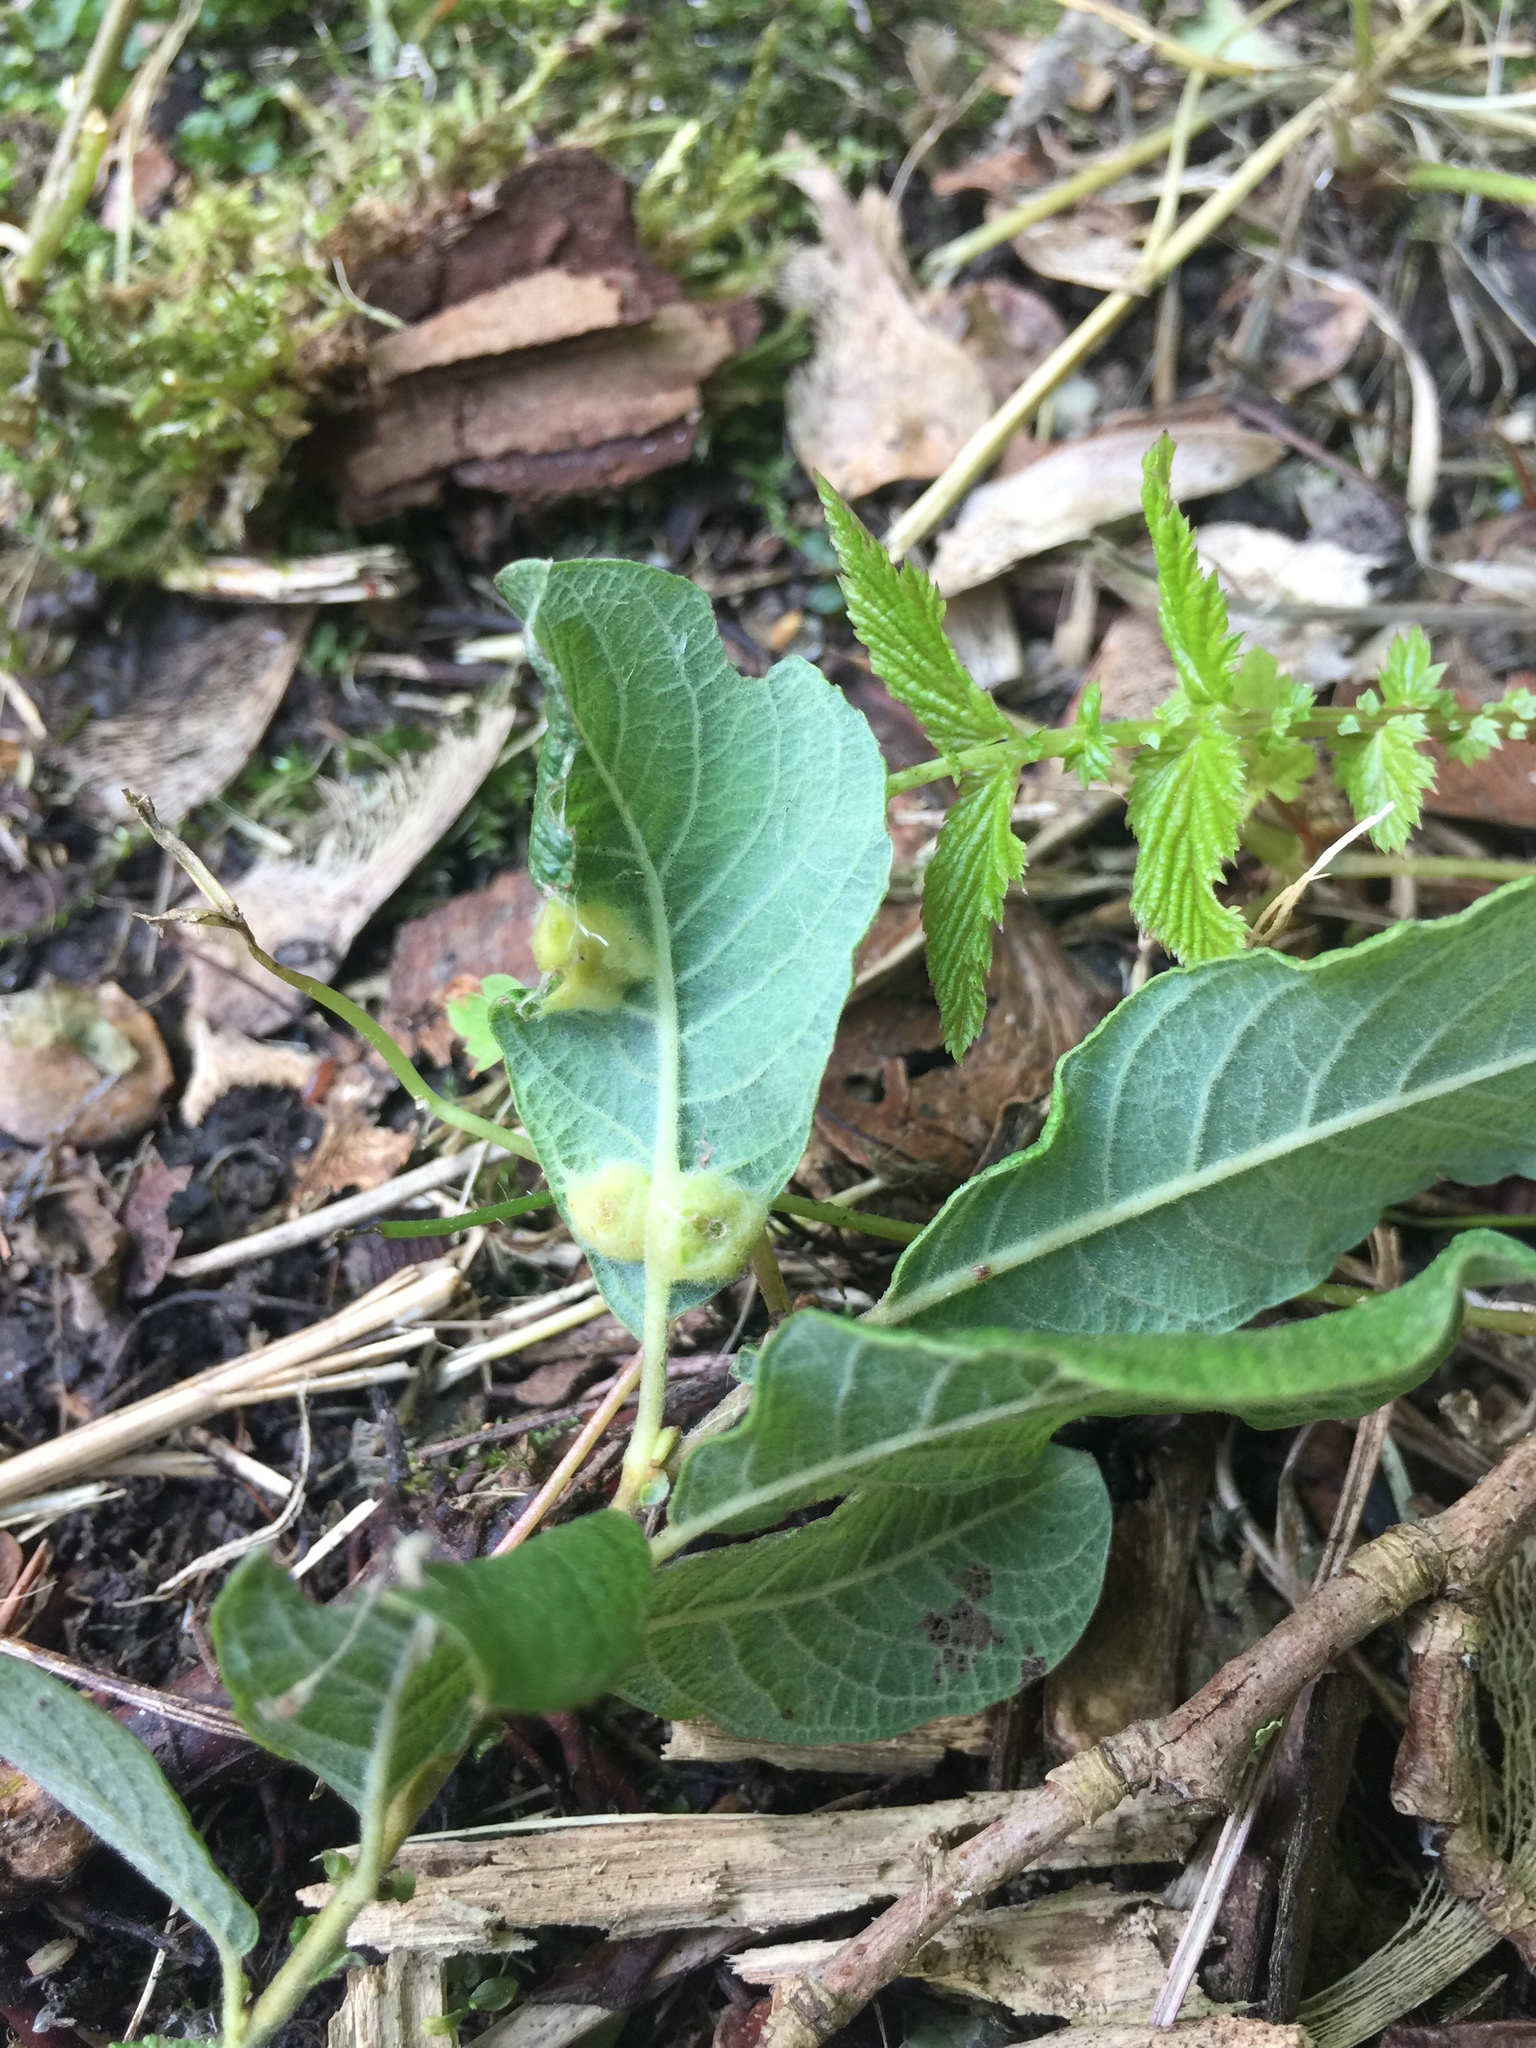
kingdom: Animalia
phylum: Arthropoda
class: Insecta
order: Diptera
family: Cecidomyiidae
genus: Iteomyia
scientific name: Iteomyia major
